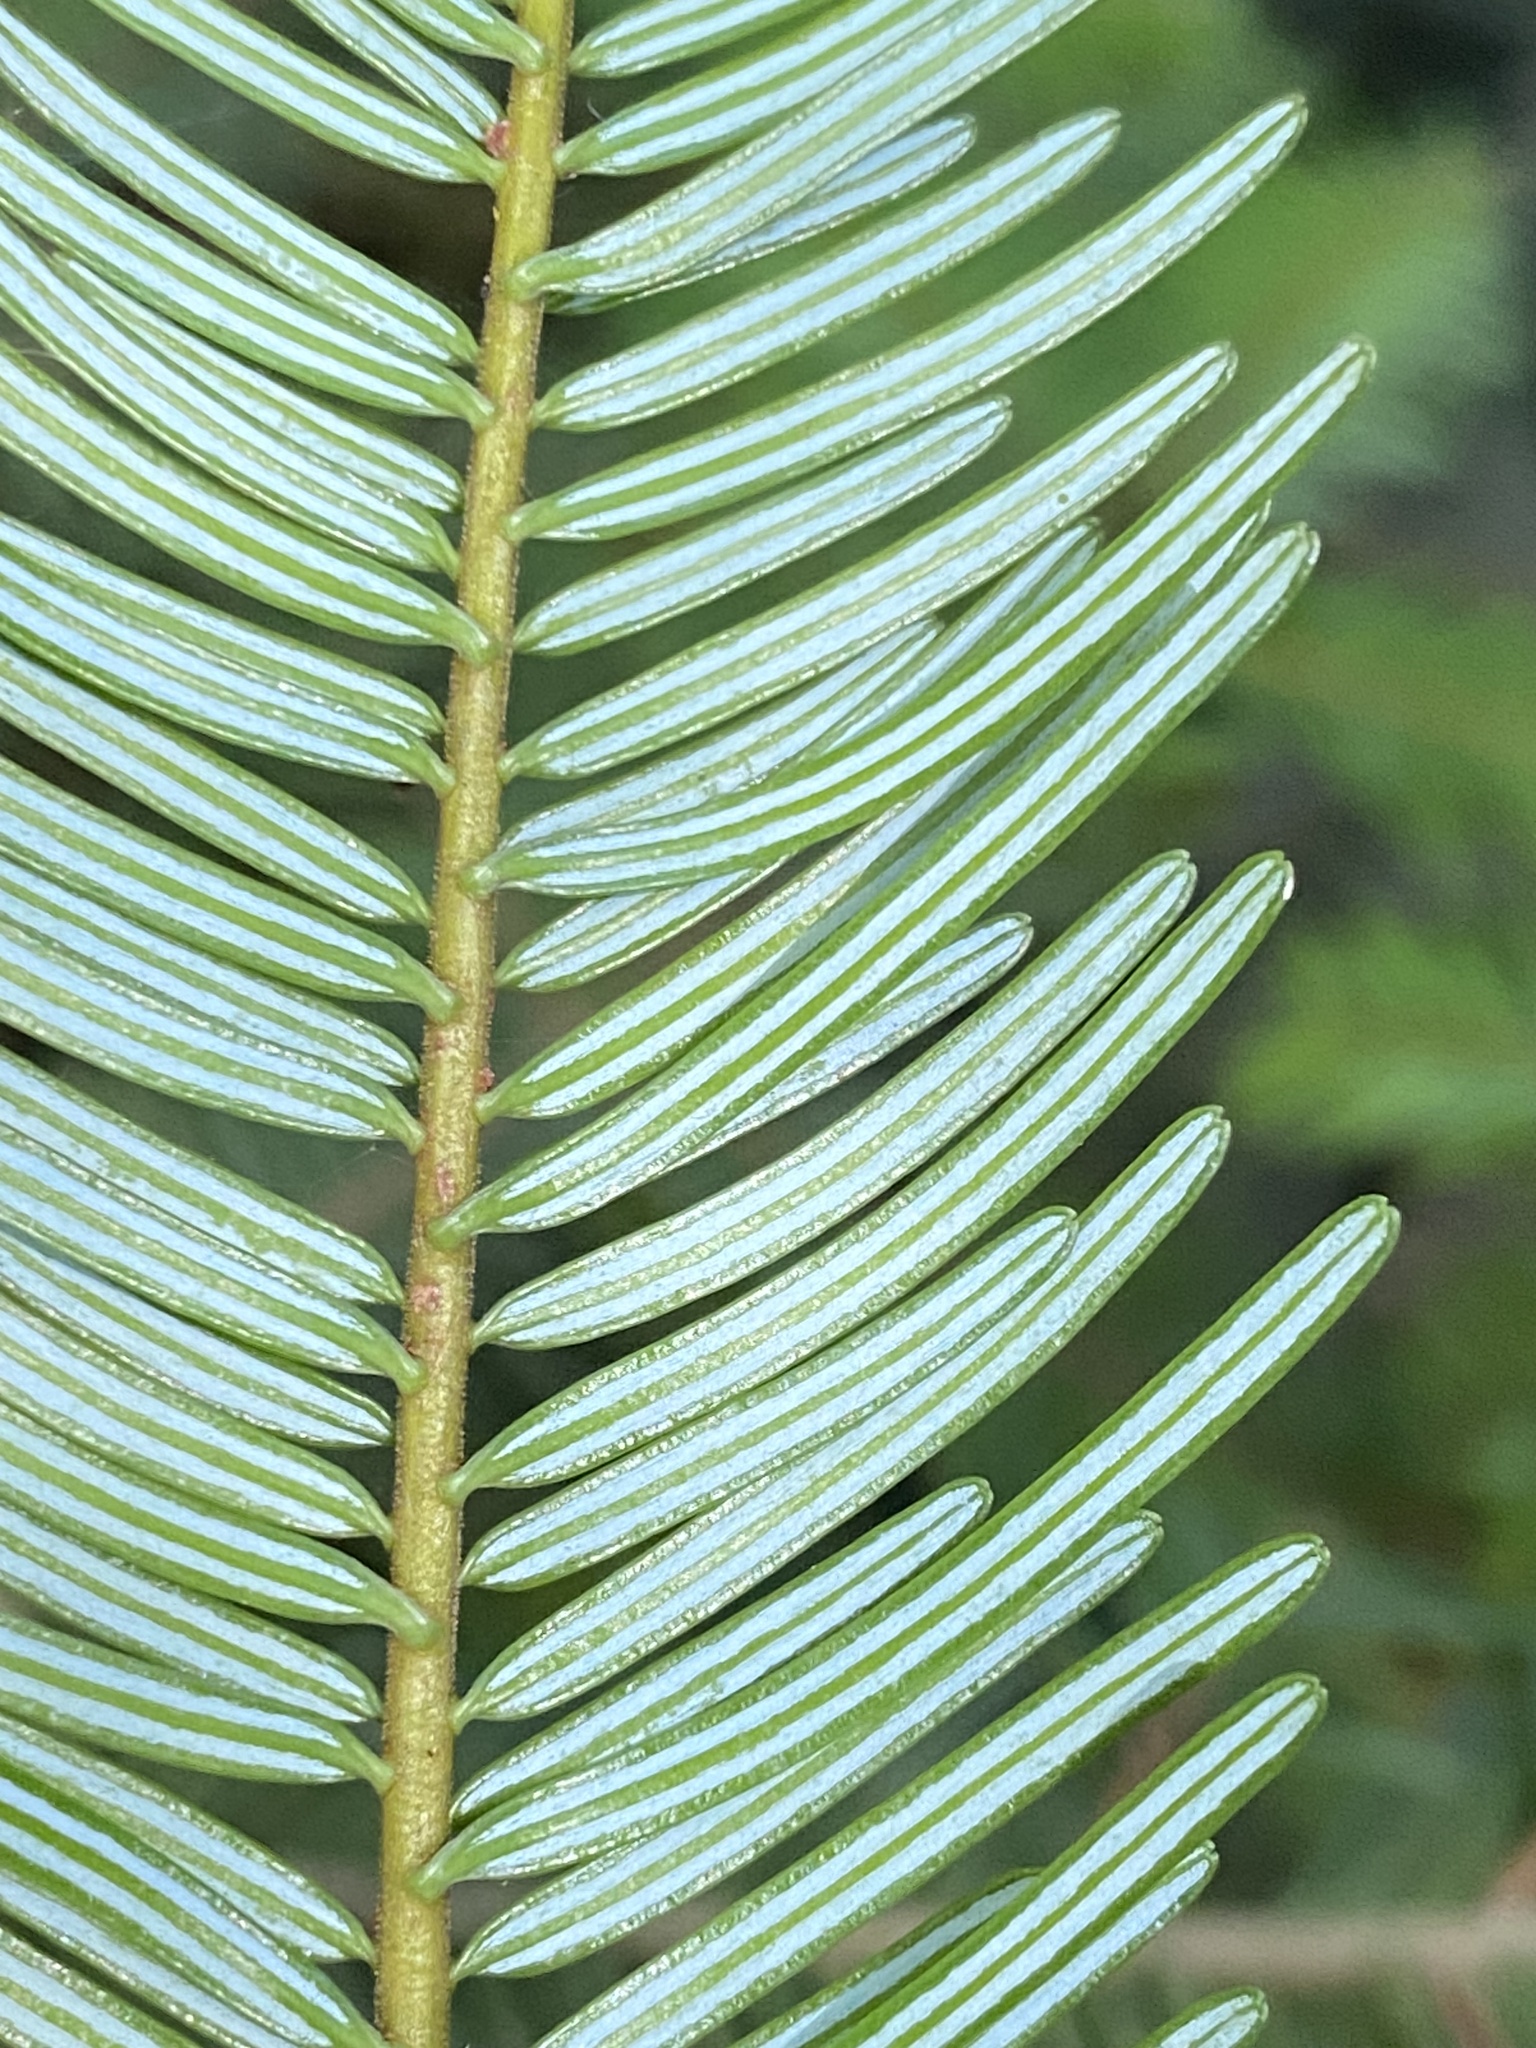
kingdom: Plantae
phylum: Tracheophyta
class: Pinopsida
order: Pinales
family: Pinaceae
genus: Abies
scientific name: Abies grandis
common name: Giant fir
